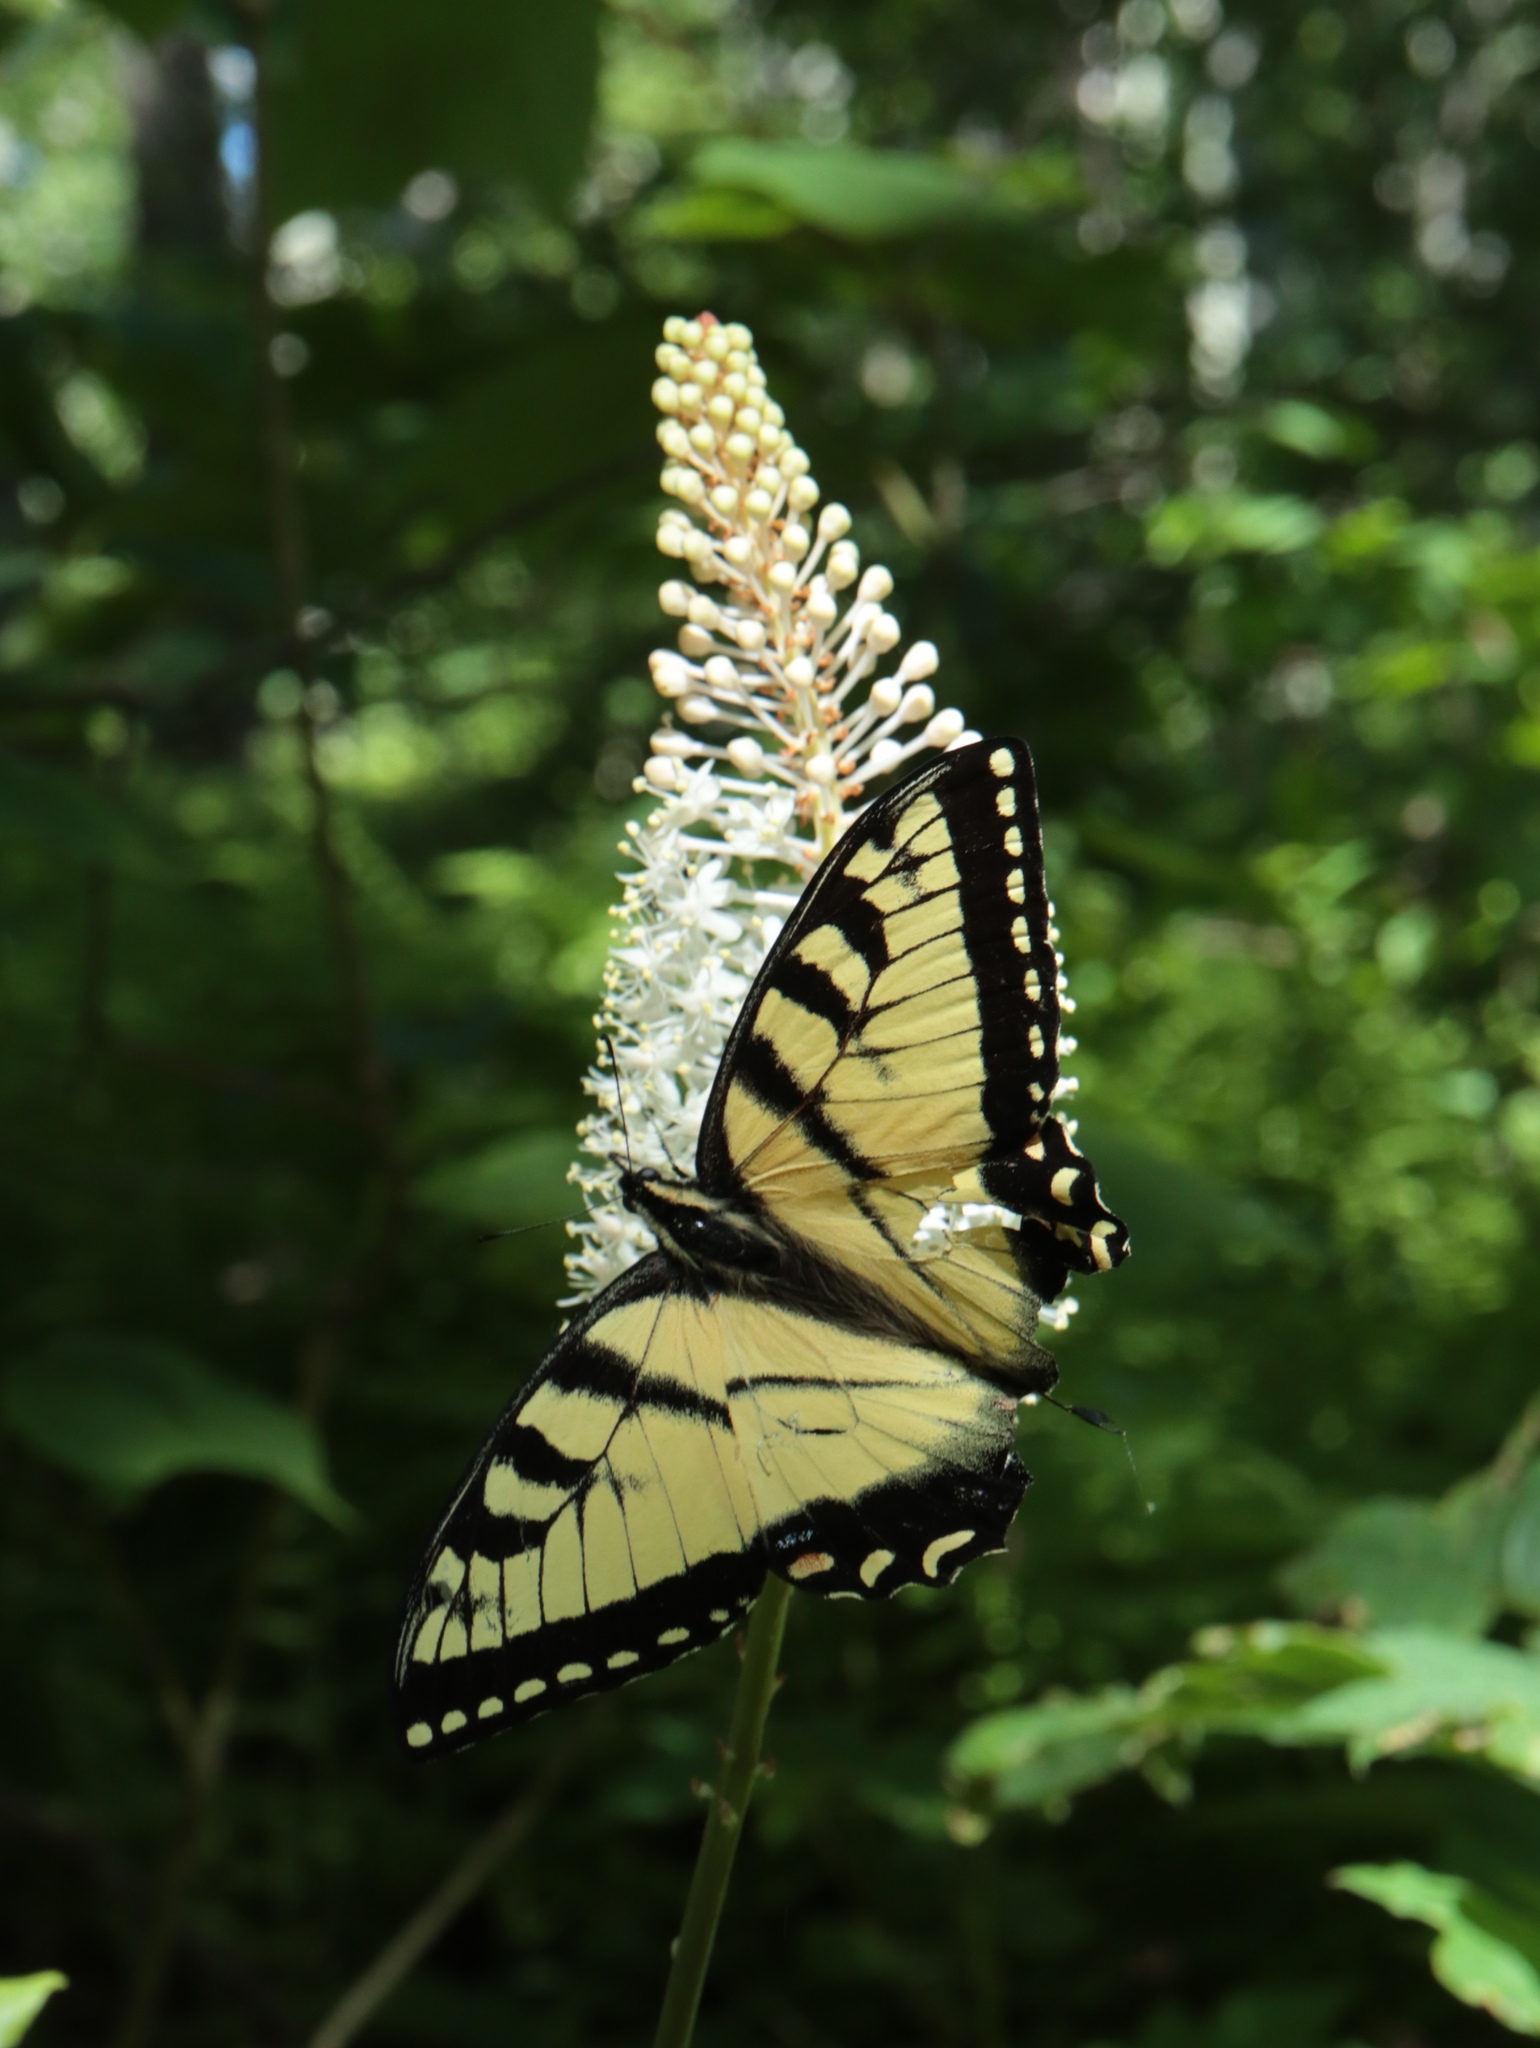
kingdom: Animalia
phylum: Arthropoda
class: Insecta
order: Lepidoptera
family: Papilionidae
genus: Papilio
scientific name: Papilio glaucus
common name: Tiger swallowtail
